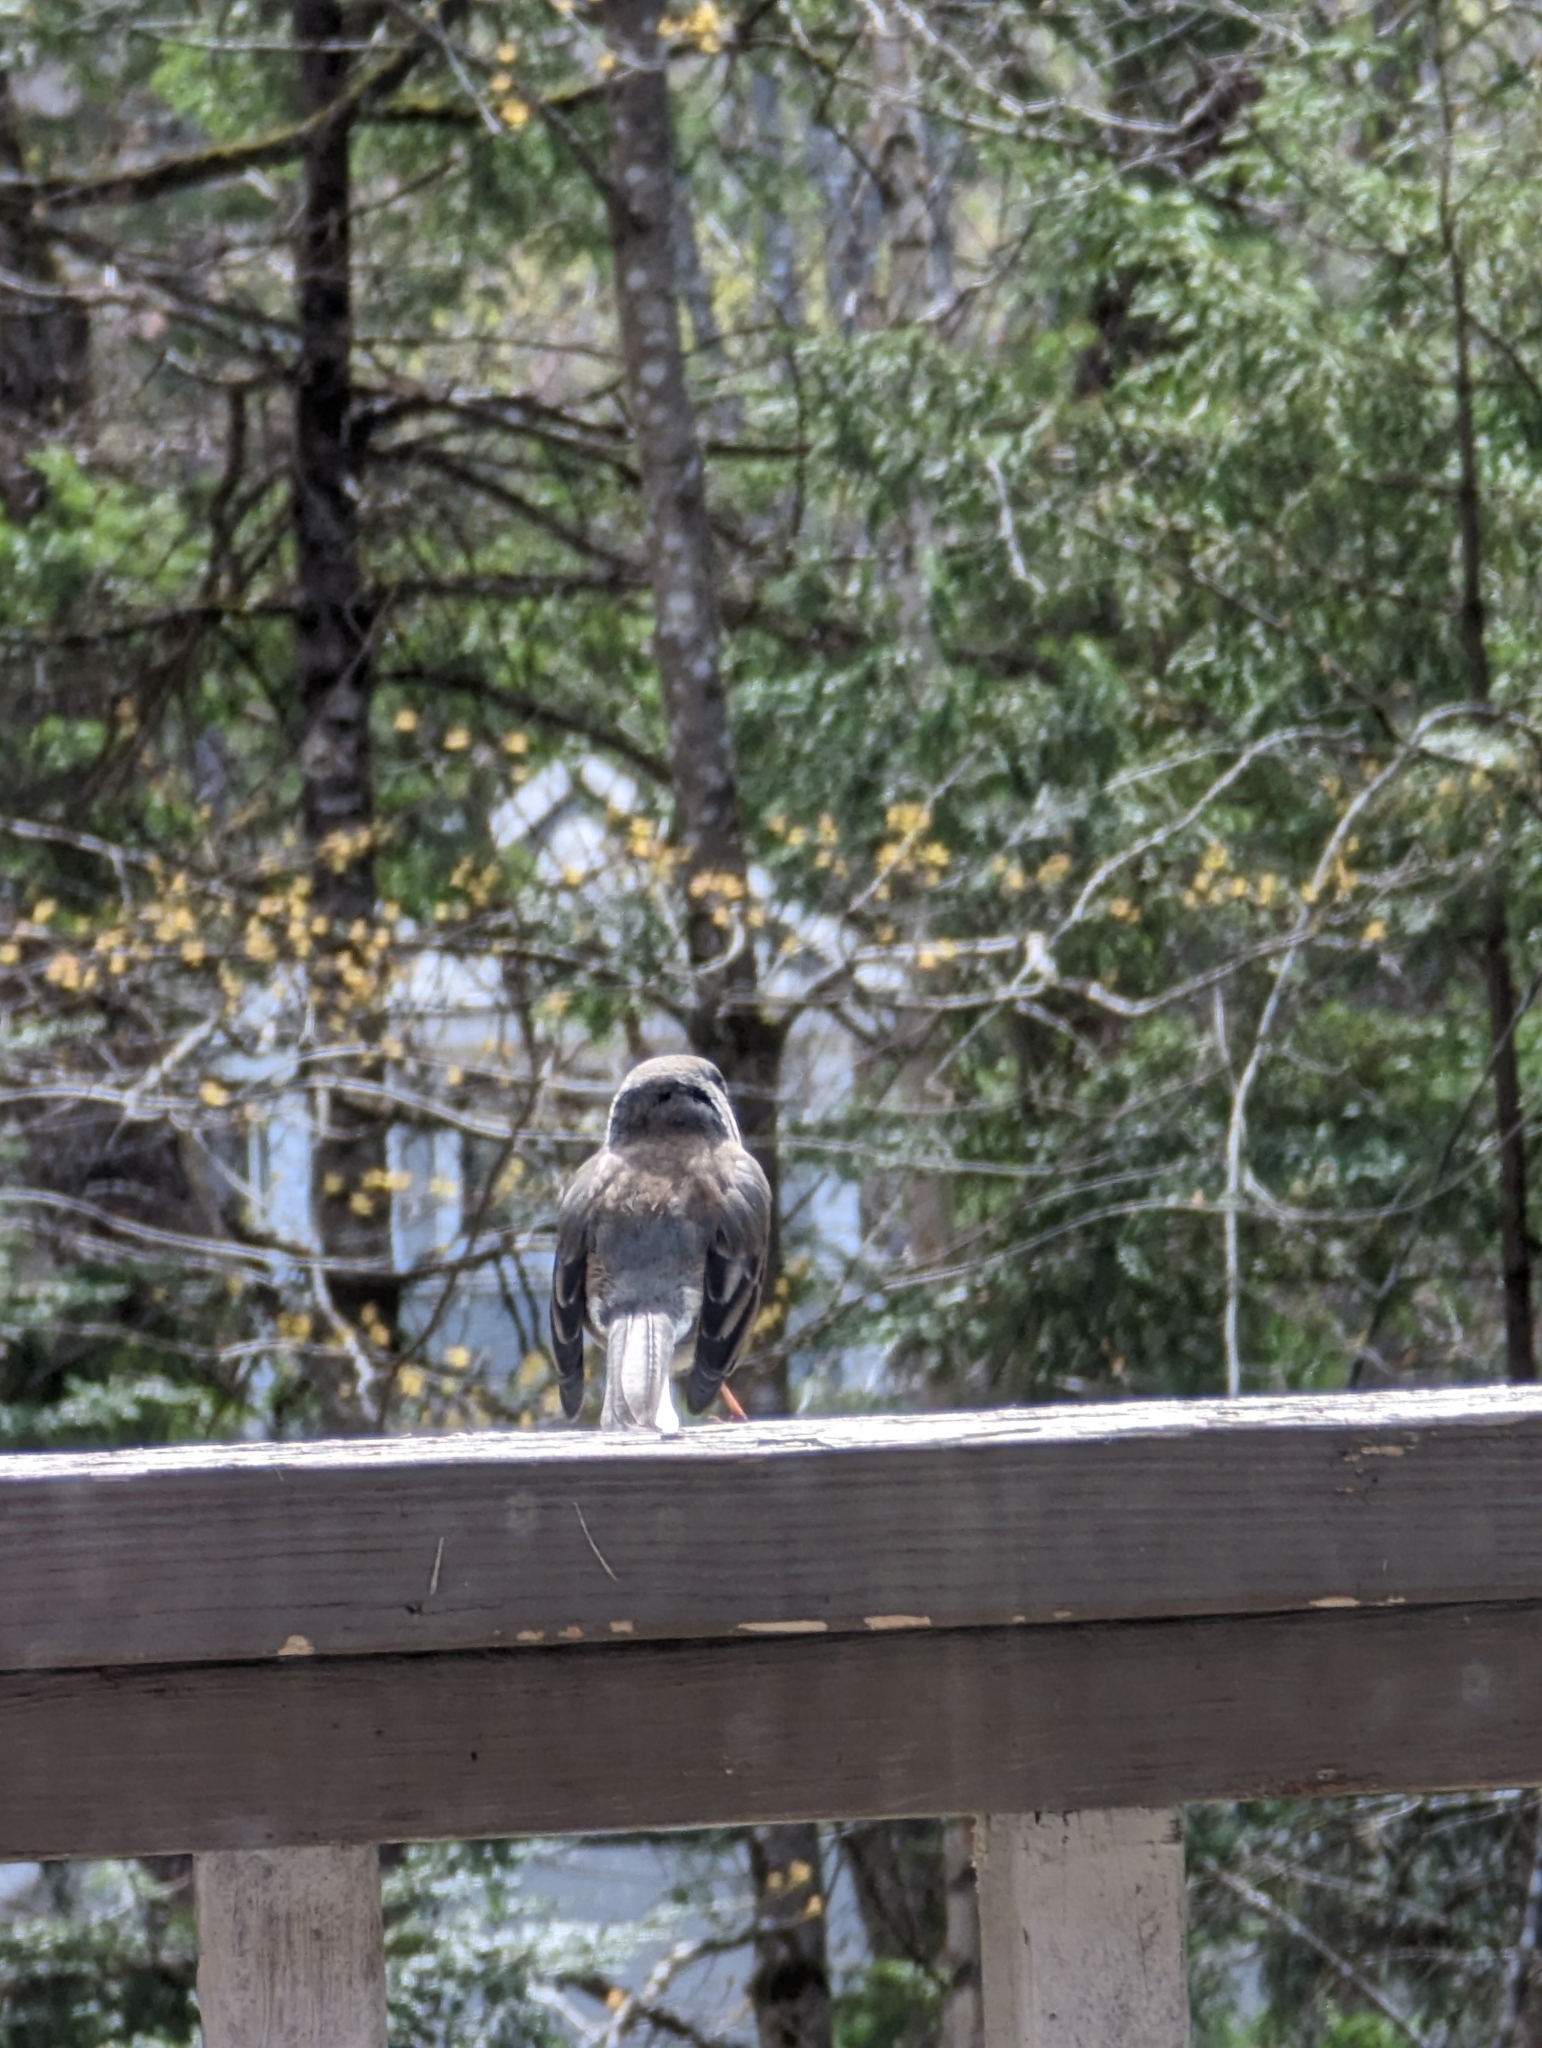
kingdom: Animalia
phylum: Chordata
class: Aves
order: Passeriformes
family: Passerellidae
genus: Junco
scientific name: Junco hyemalis
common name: Dark-eyed junco
